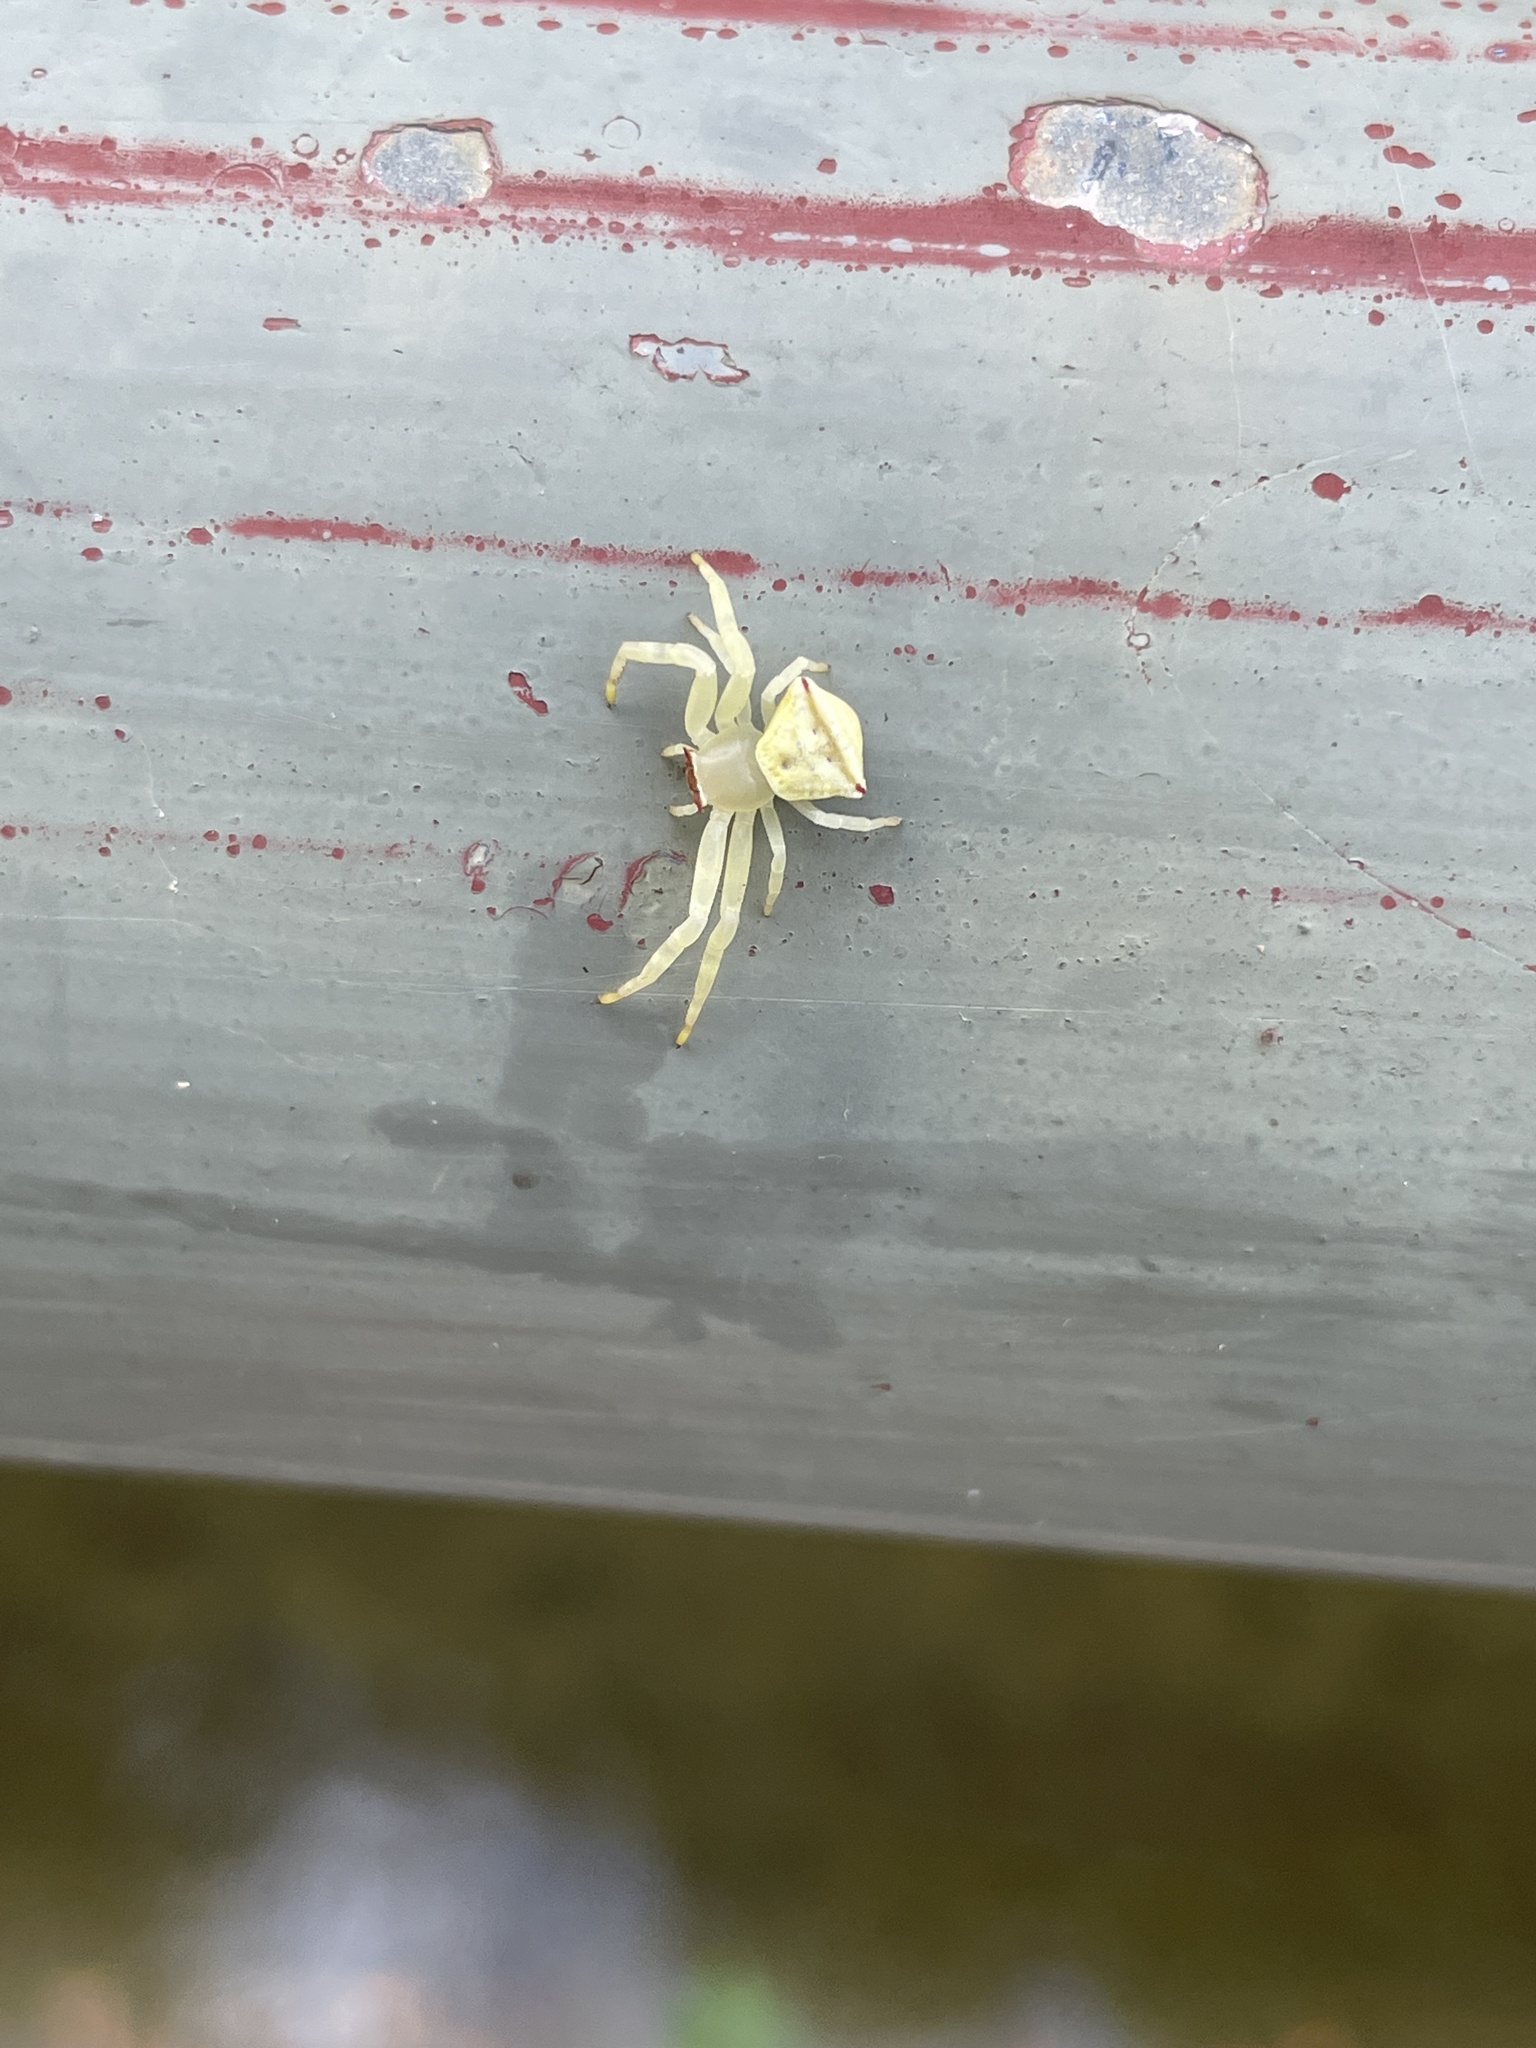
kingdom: Animalia
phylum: Arthropoda
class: Arachnida
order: Araneae
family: Thomisidae
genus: Thomisus
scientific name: Thomisus labefactus
